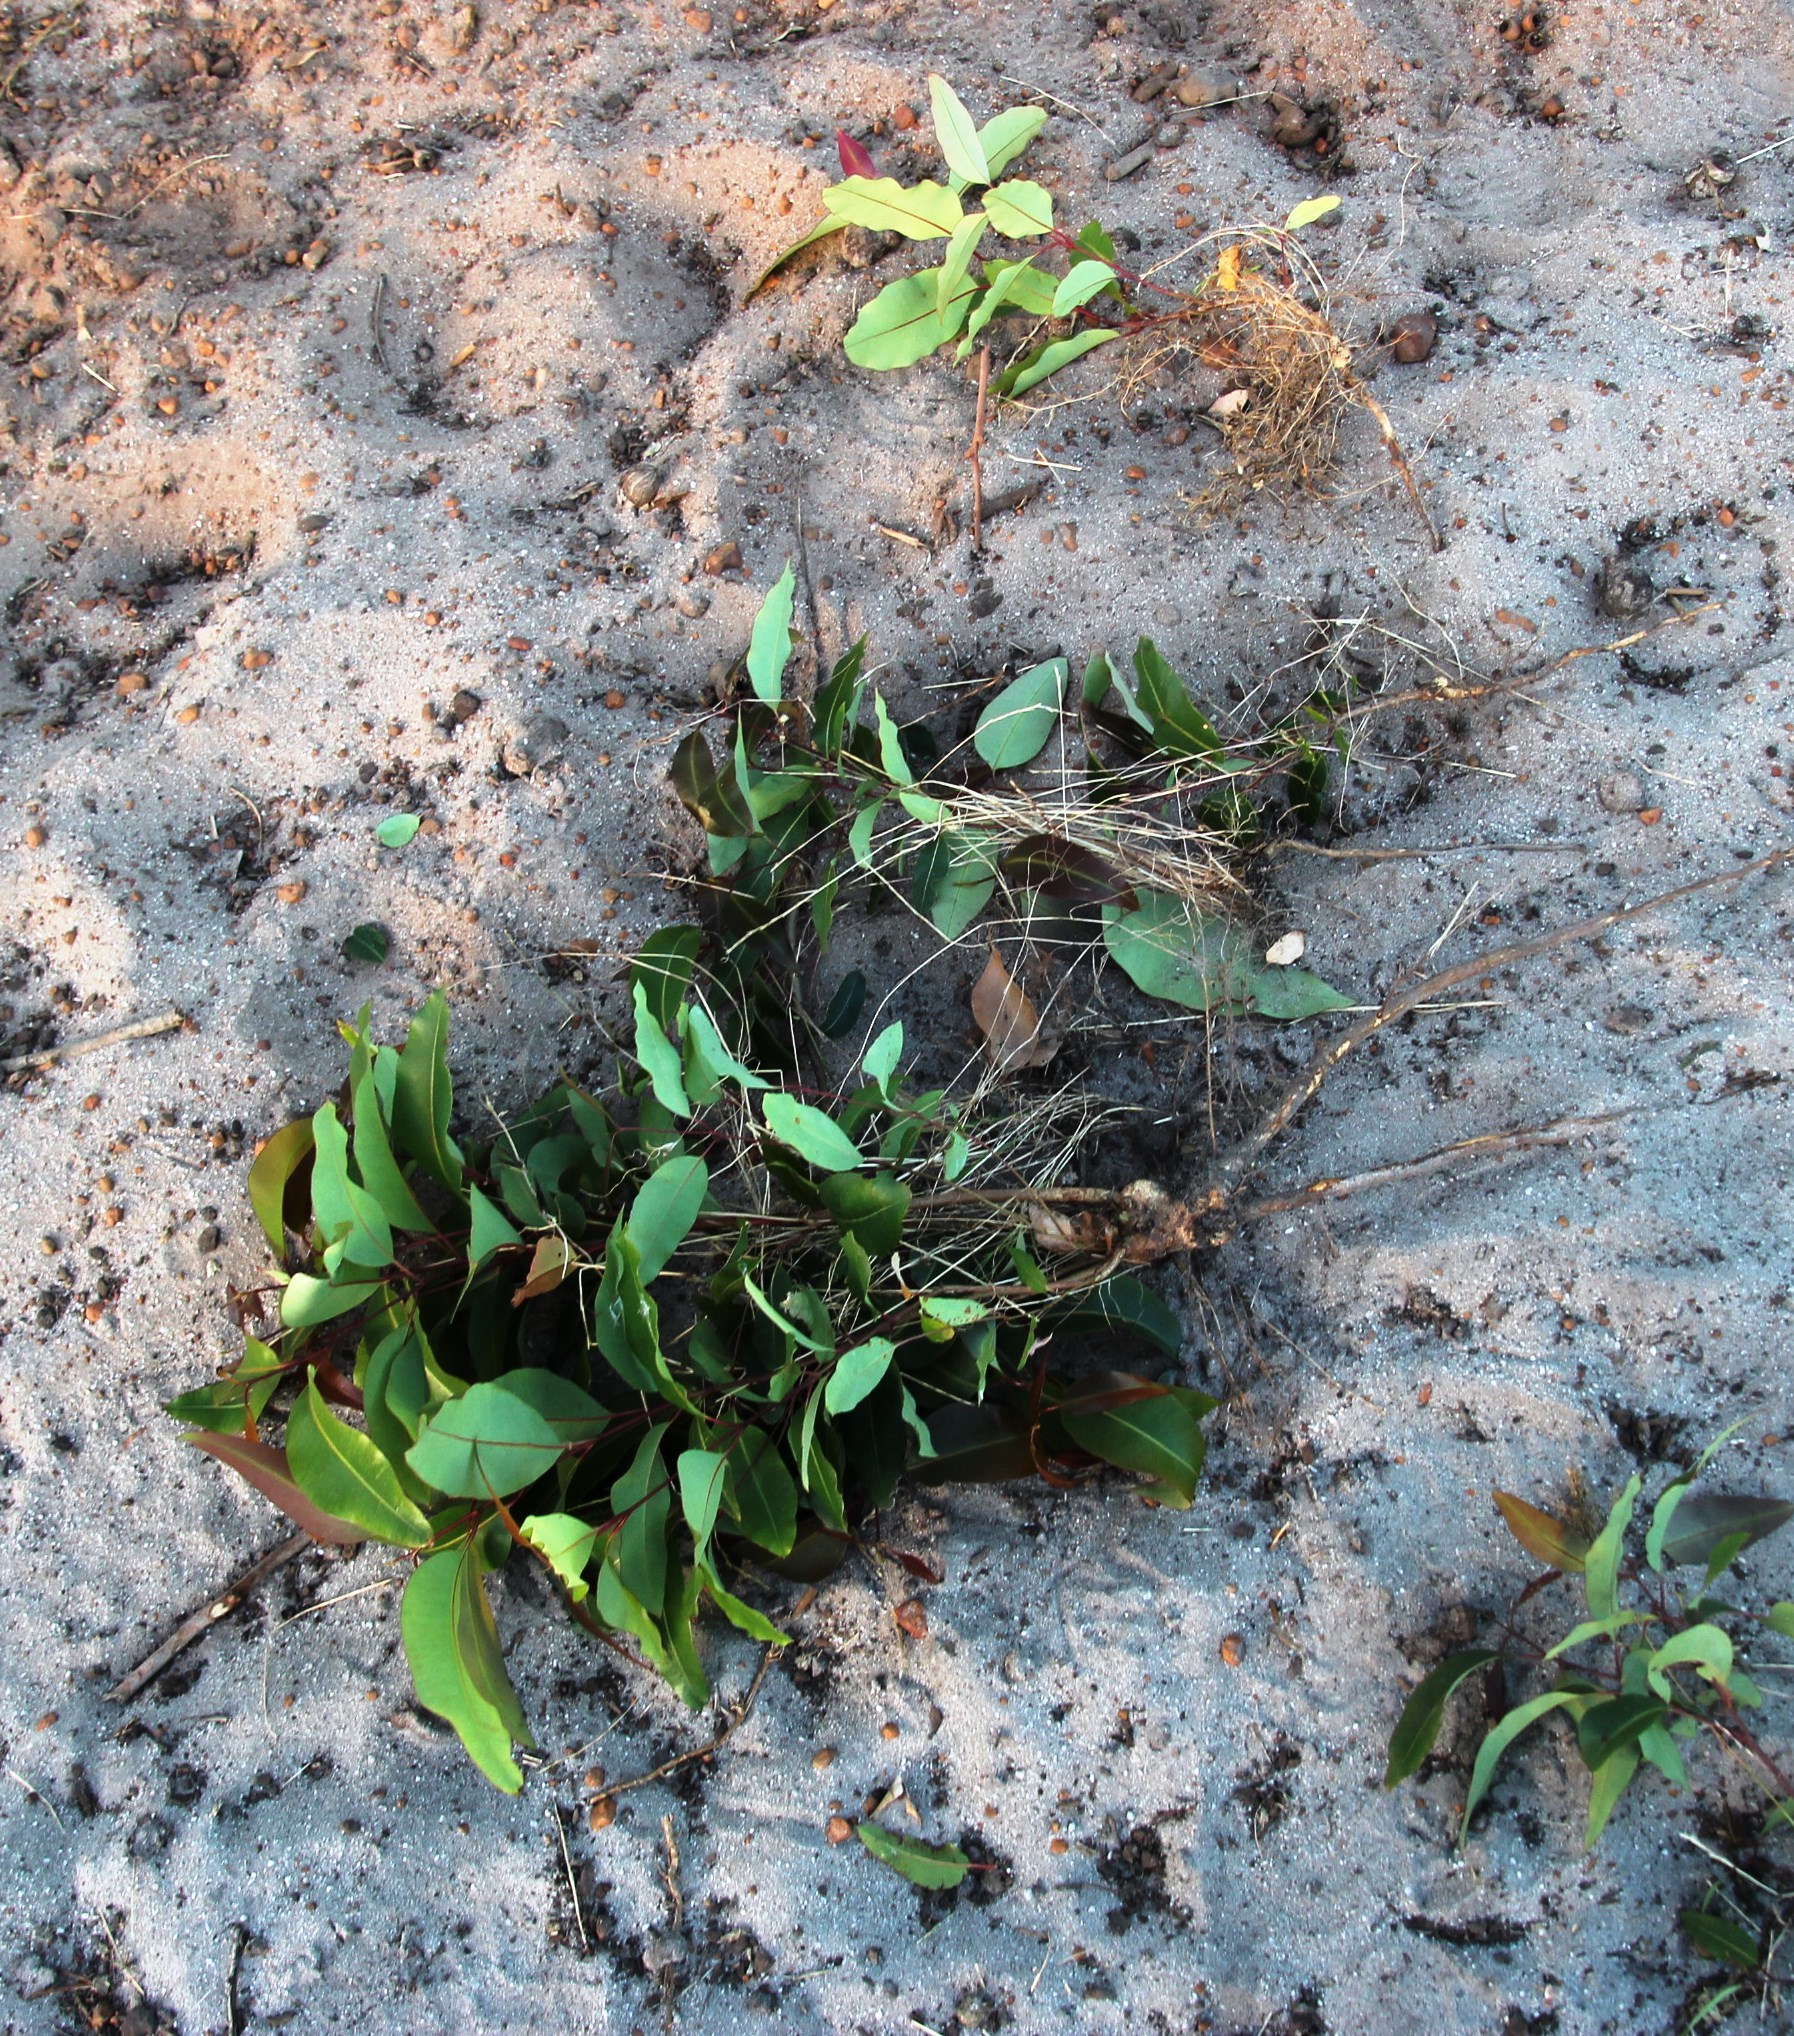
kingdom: Plantae
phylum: Tracheophyta
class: Magnoliopsida
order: Myrtales
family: Myrtaceae
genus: Corymbia
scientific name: Corymbia ficifolia
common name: Redflower gum
